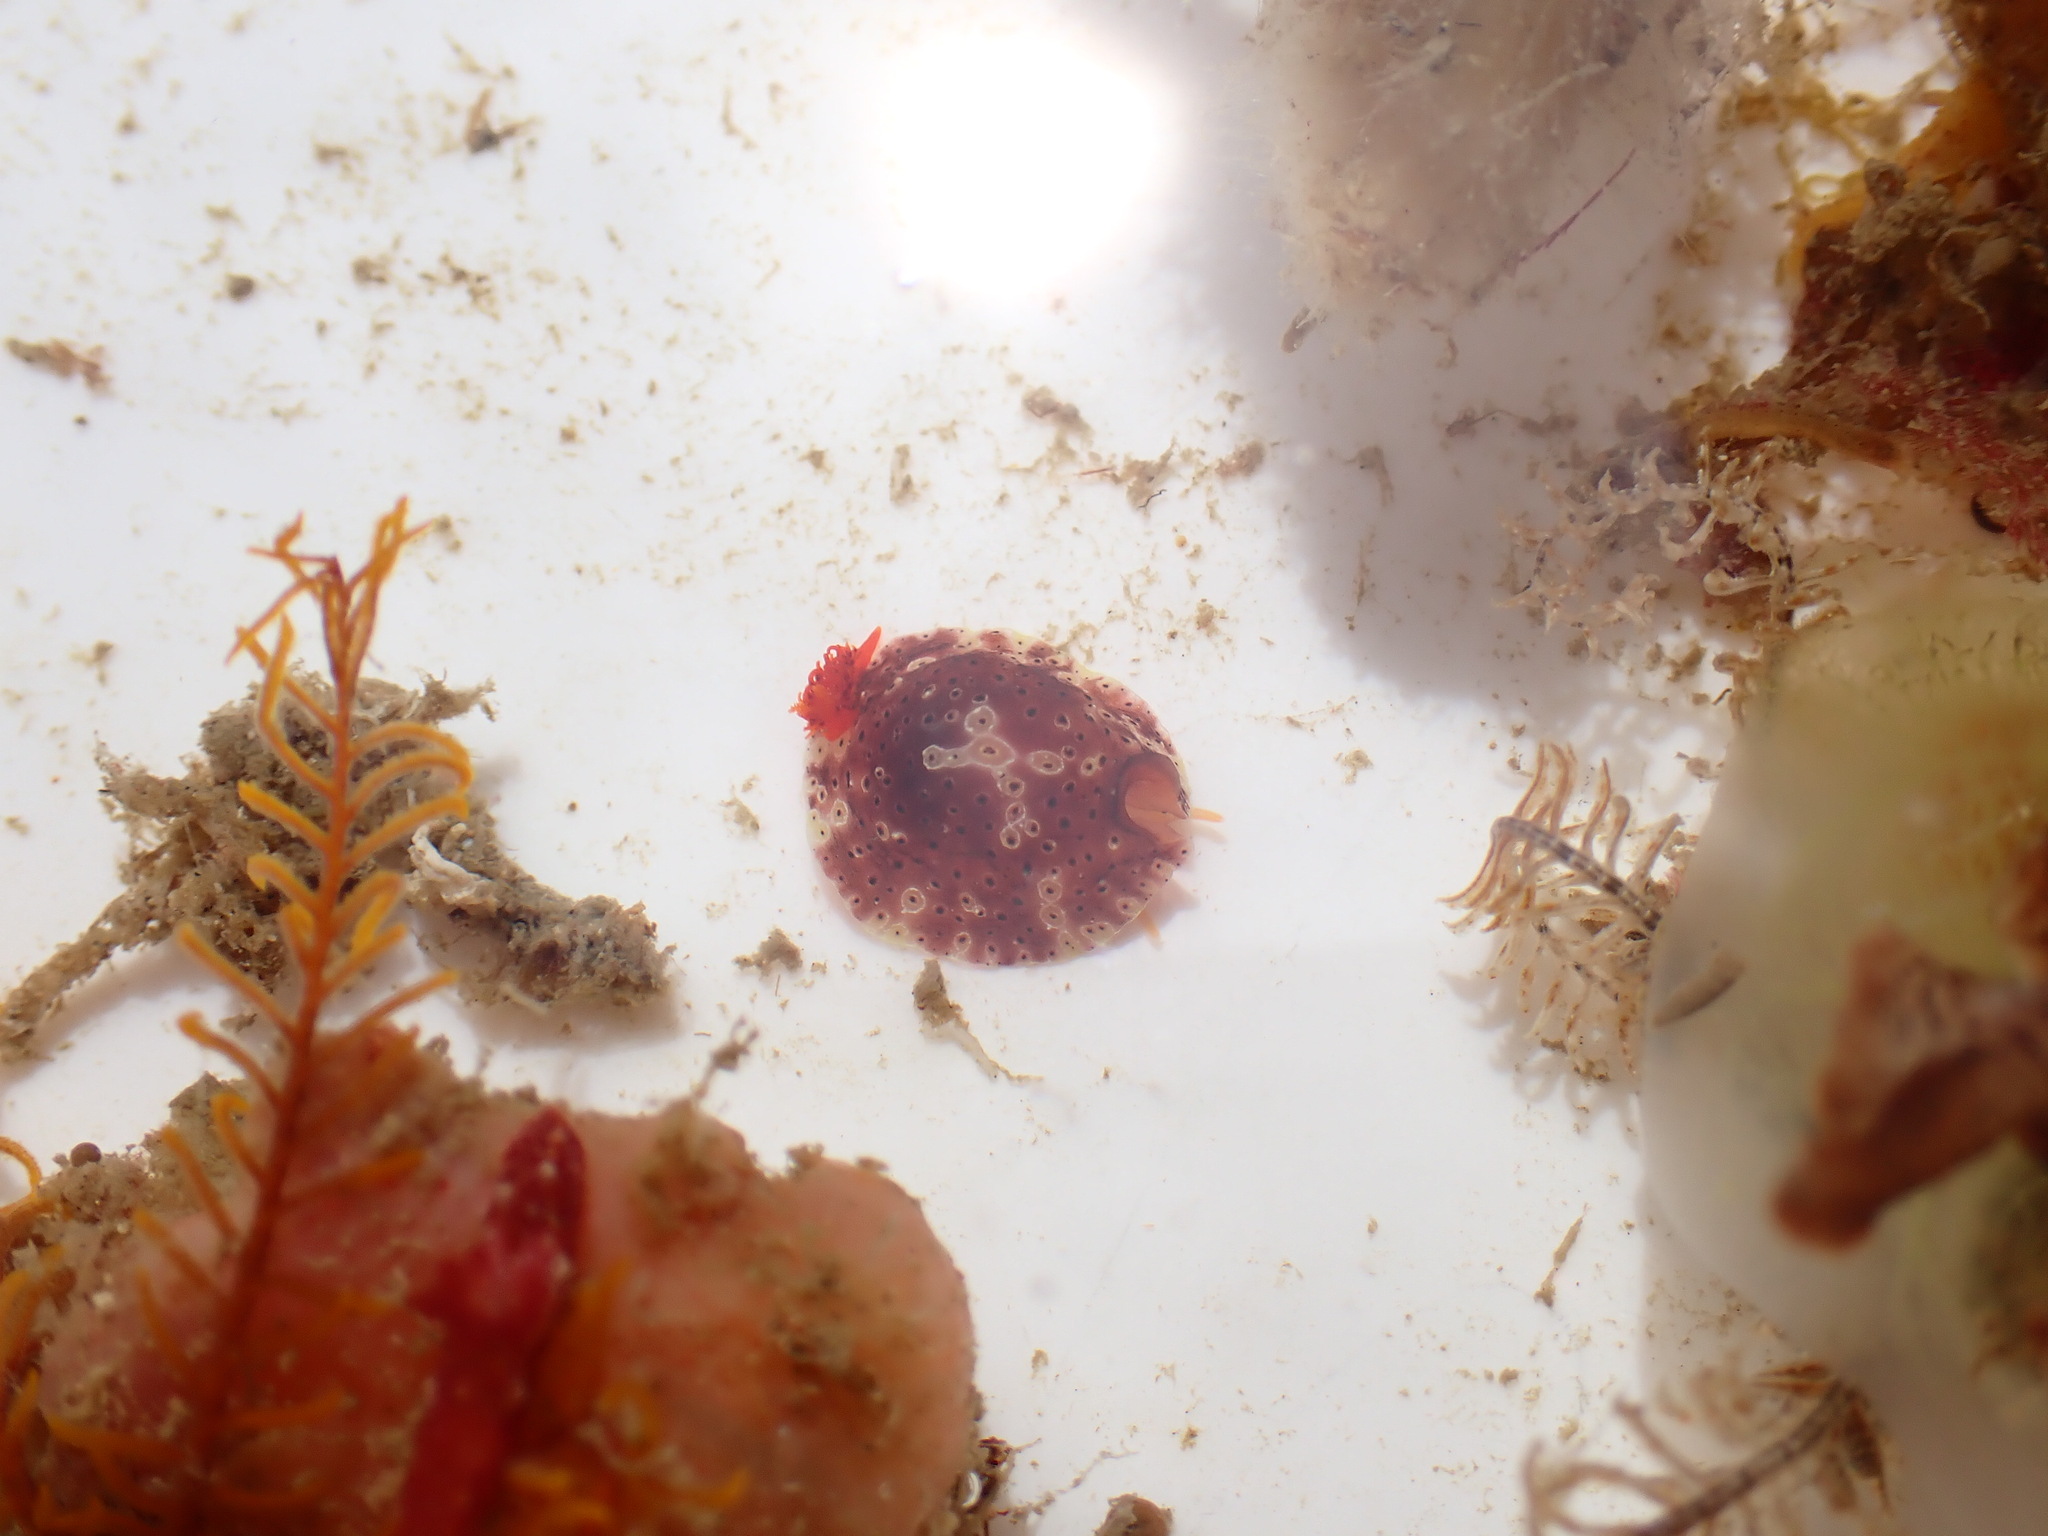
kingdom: Animalia
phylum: Mollusca
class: Gastropoda
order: Littorinimorpha
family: Velutinidae
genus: Djiboutia
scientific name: Djiboutia australis
